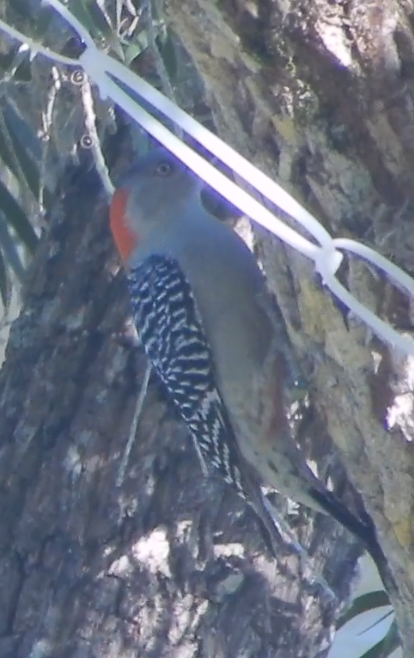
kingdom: Animalia
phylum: Chordata
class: Aves
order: Piciformes
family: Picidae
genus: Melanerpes
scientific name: Melanerpes carolinus
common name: Red-bellied woodpecker
